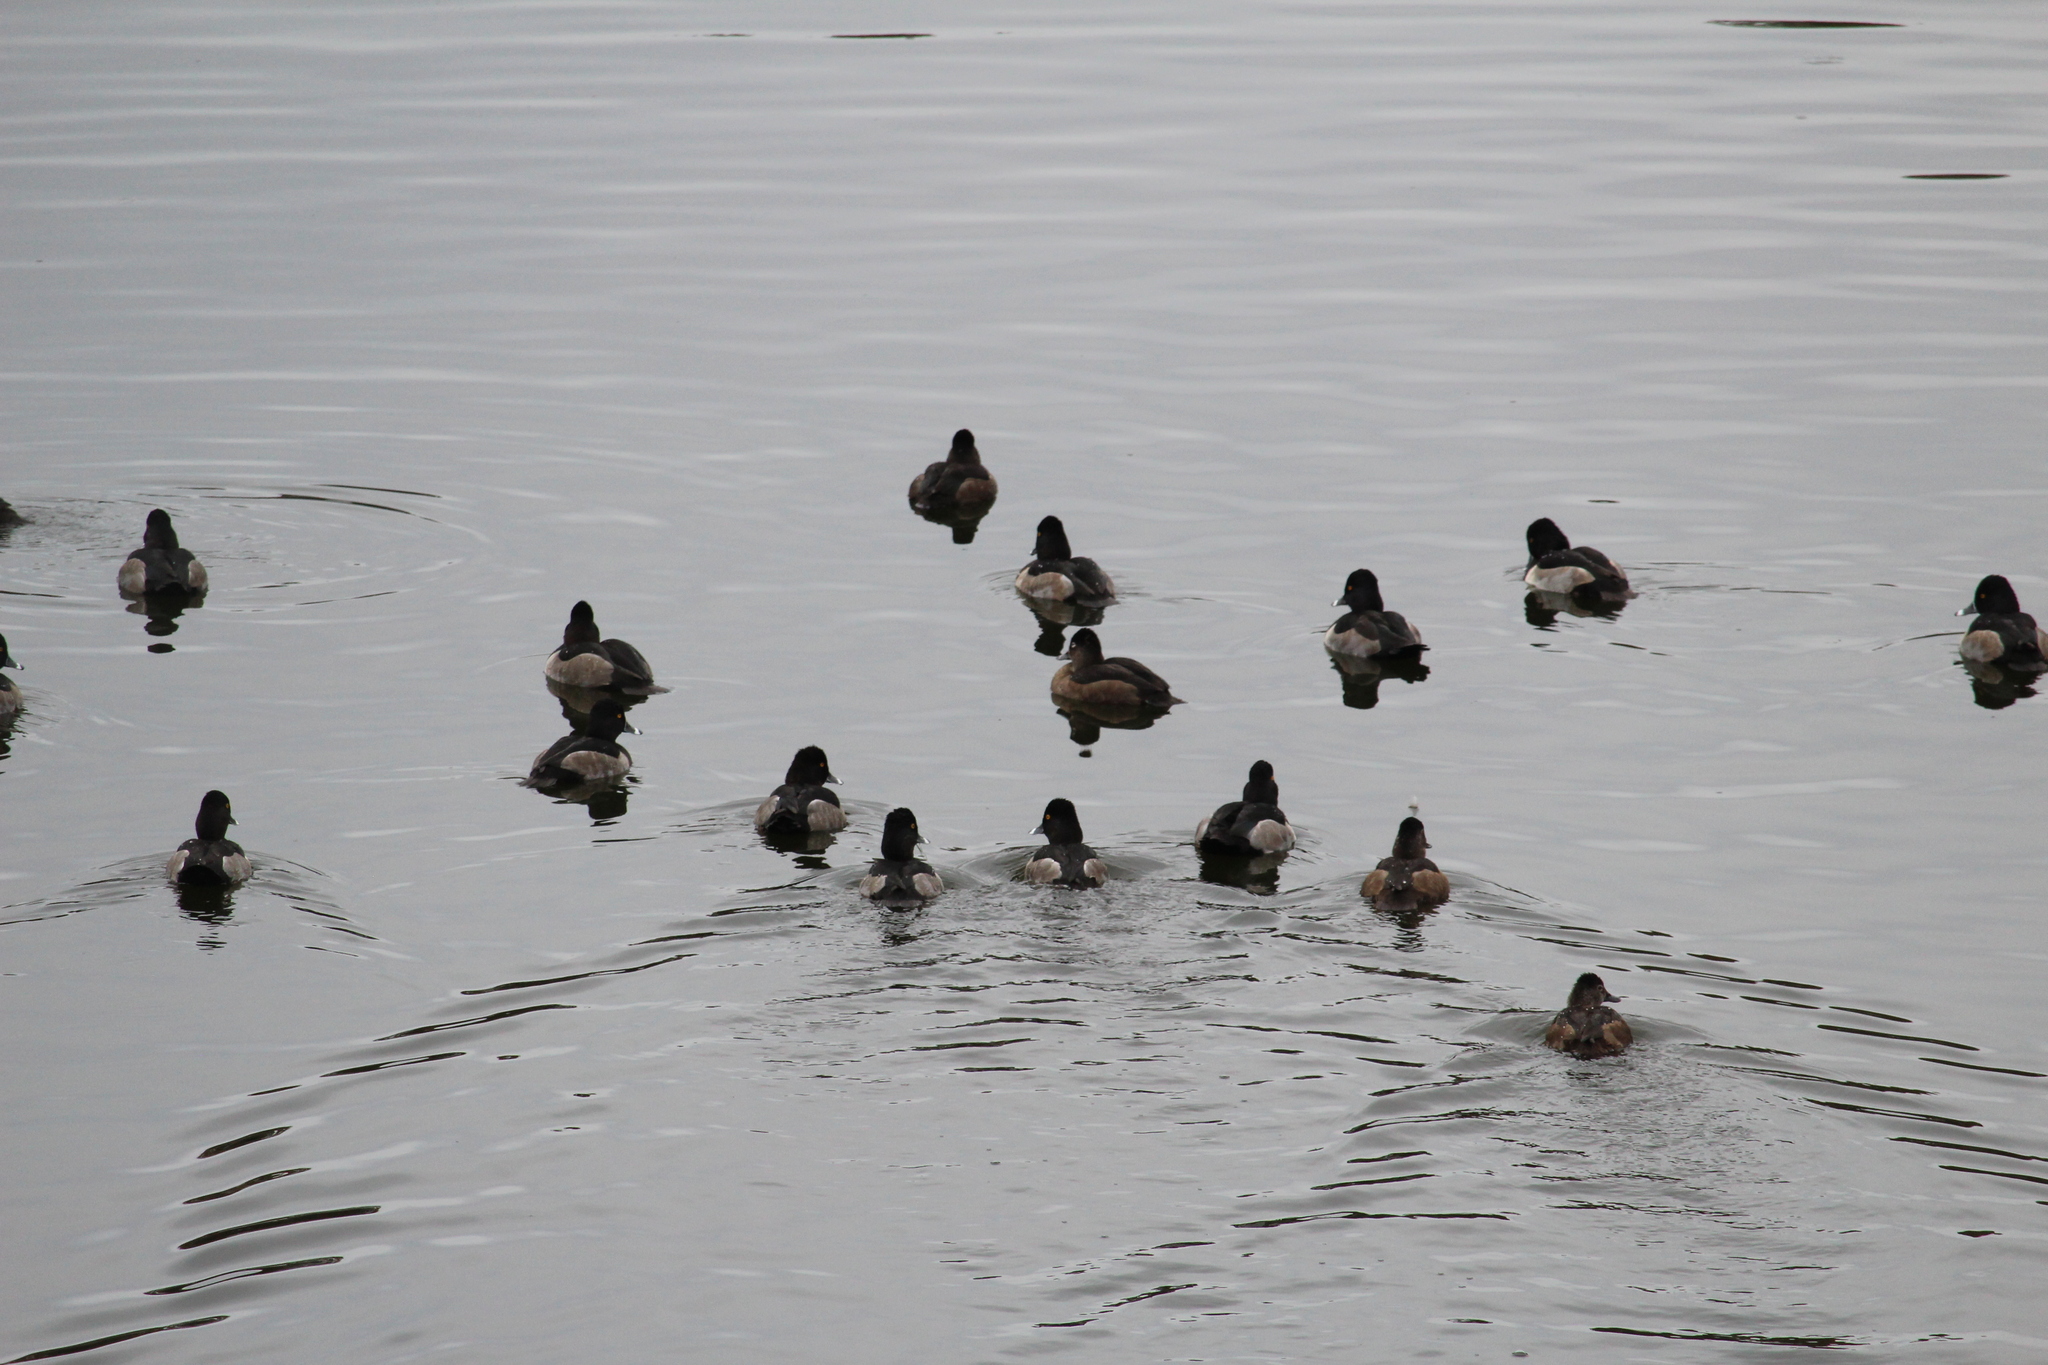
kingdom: Animalia
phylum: Chordata
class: Aves
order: Anseriformes
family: Anatidae
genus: Aythya
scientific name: Aythya collaris
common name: Ring-necked duck
